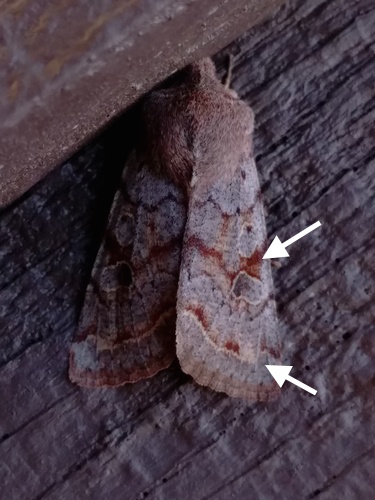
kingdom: Animalia
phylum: Arthropoda
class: Insecta
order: Lepidoptera
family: Noctuidae
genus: Orthosia
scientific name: Orthosia hibisci
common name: Green fruitworm
